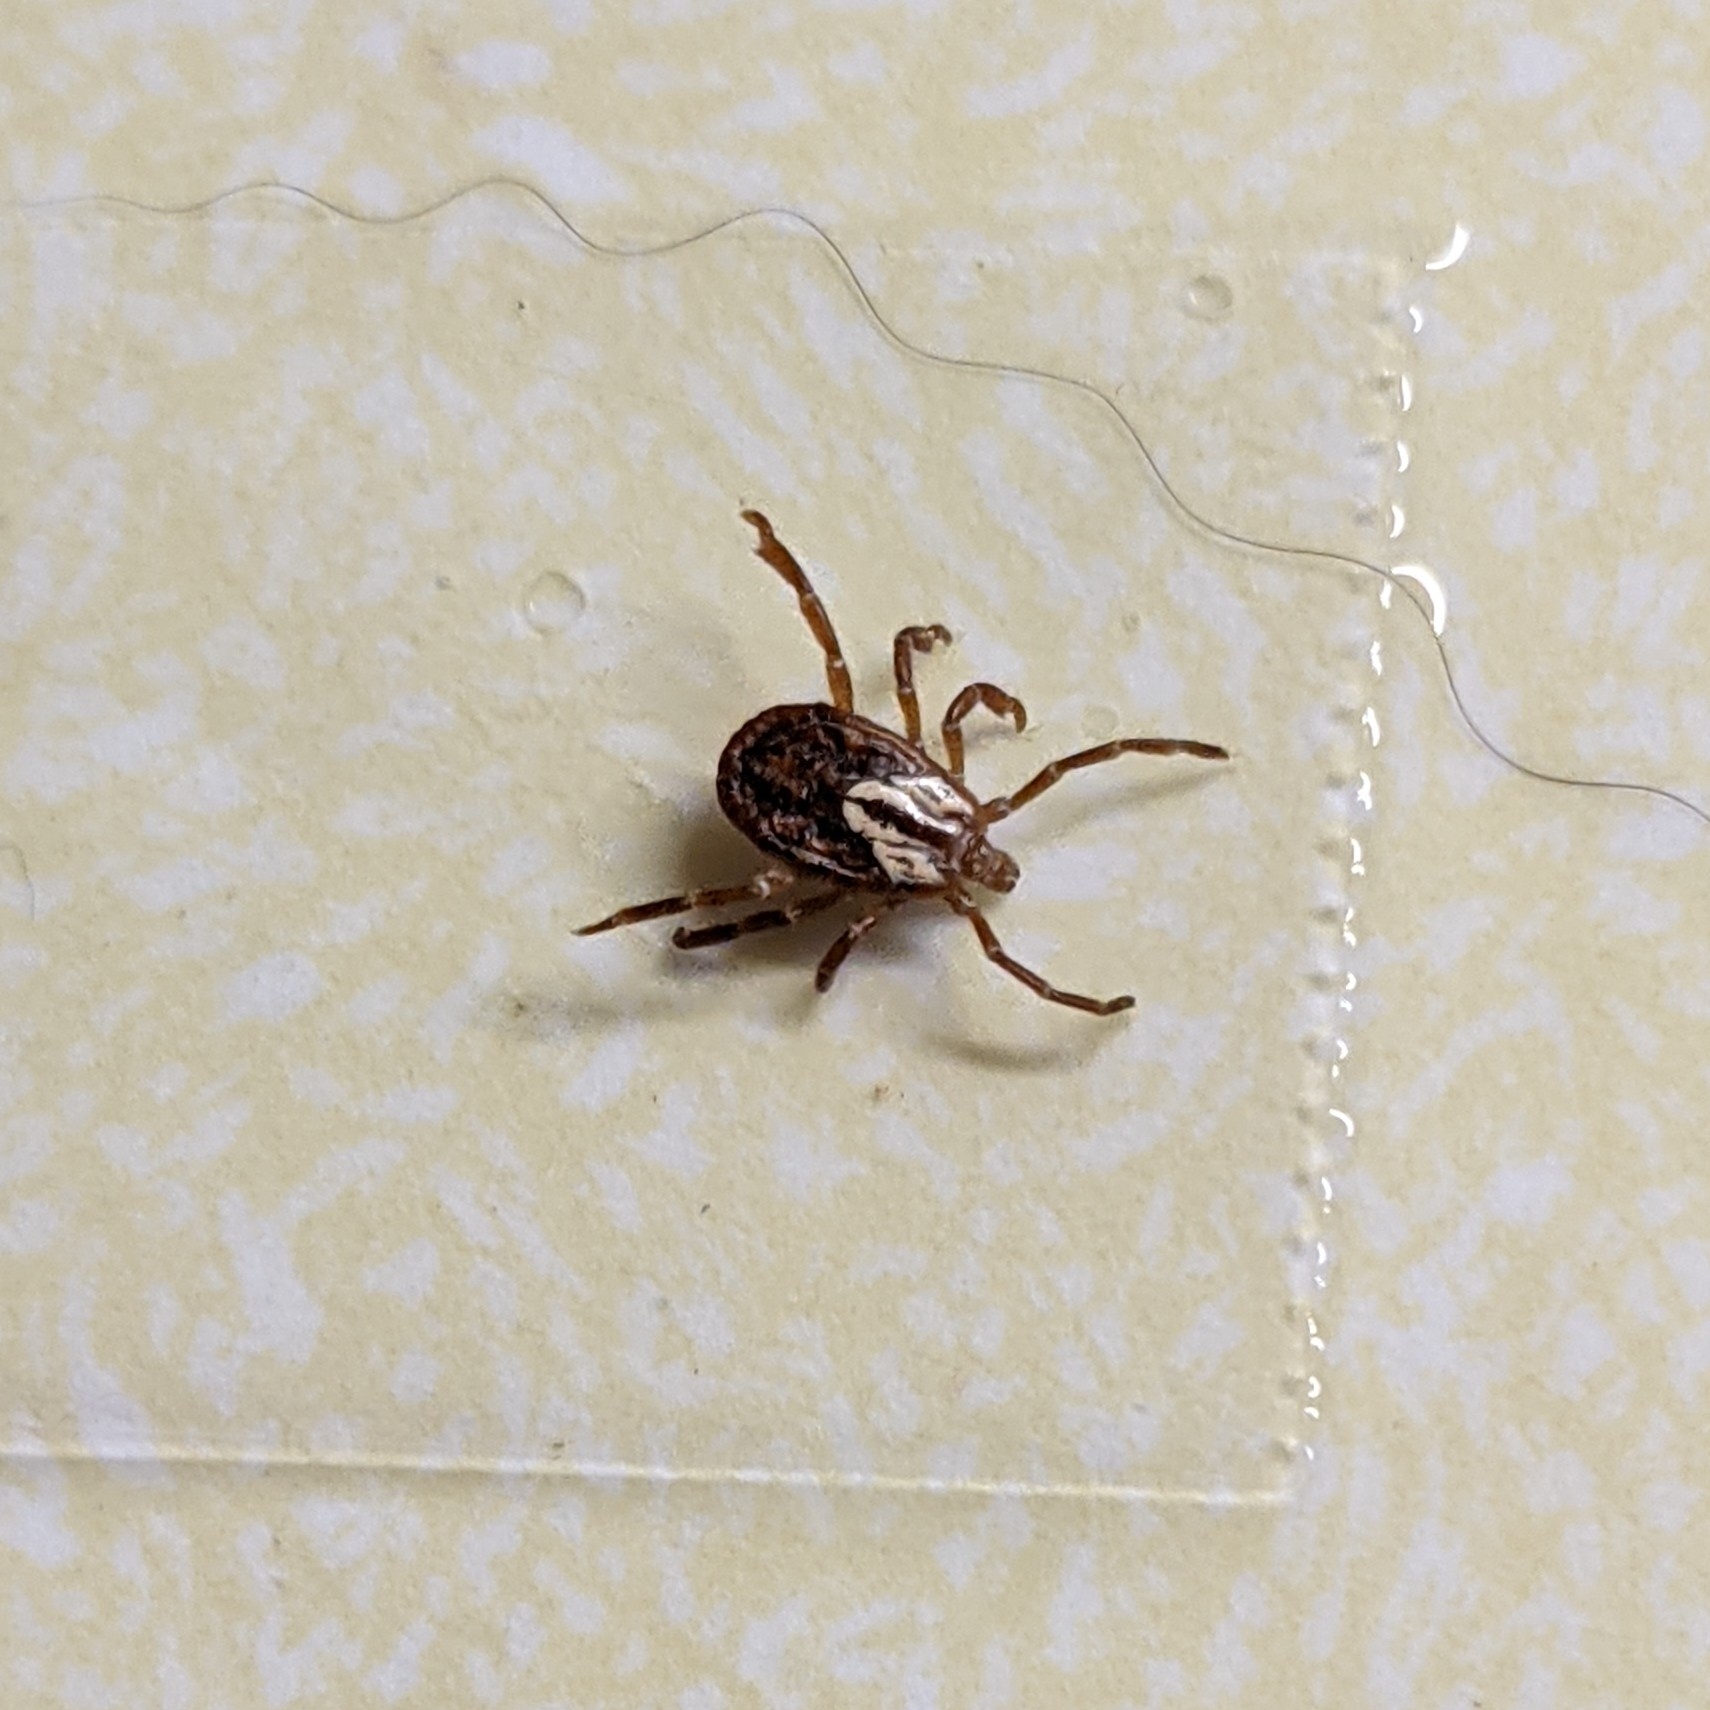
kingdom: Animalia
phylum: Arthropoda
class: Arachnida
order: Ixodida
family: Ixodidae
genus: Amblyomma
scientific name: Amblyomma maculatum
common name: Gulf coast tick
